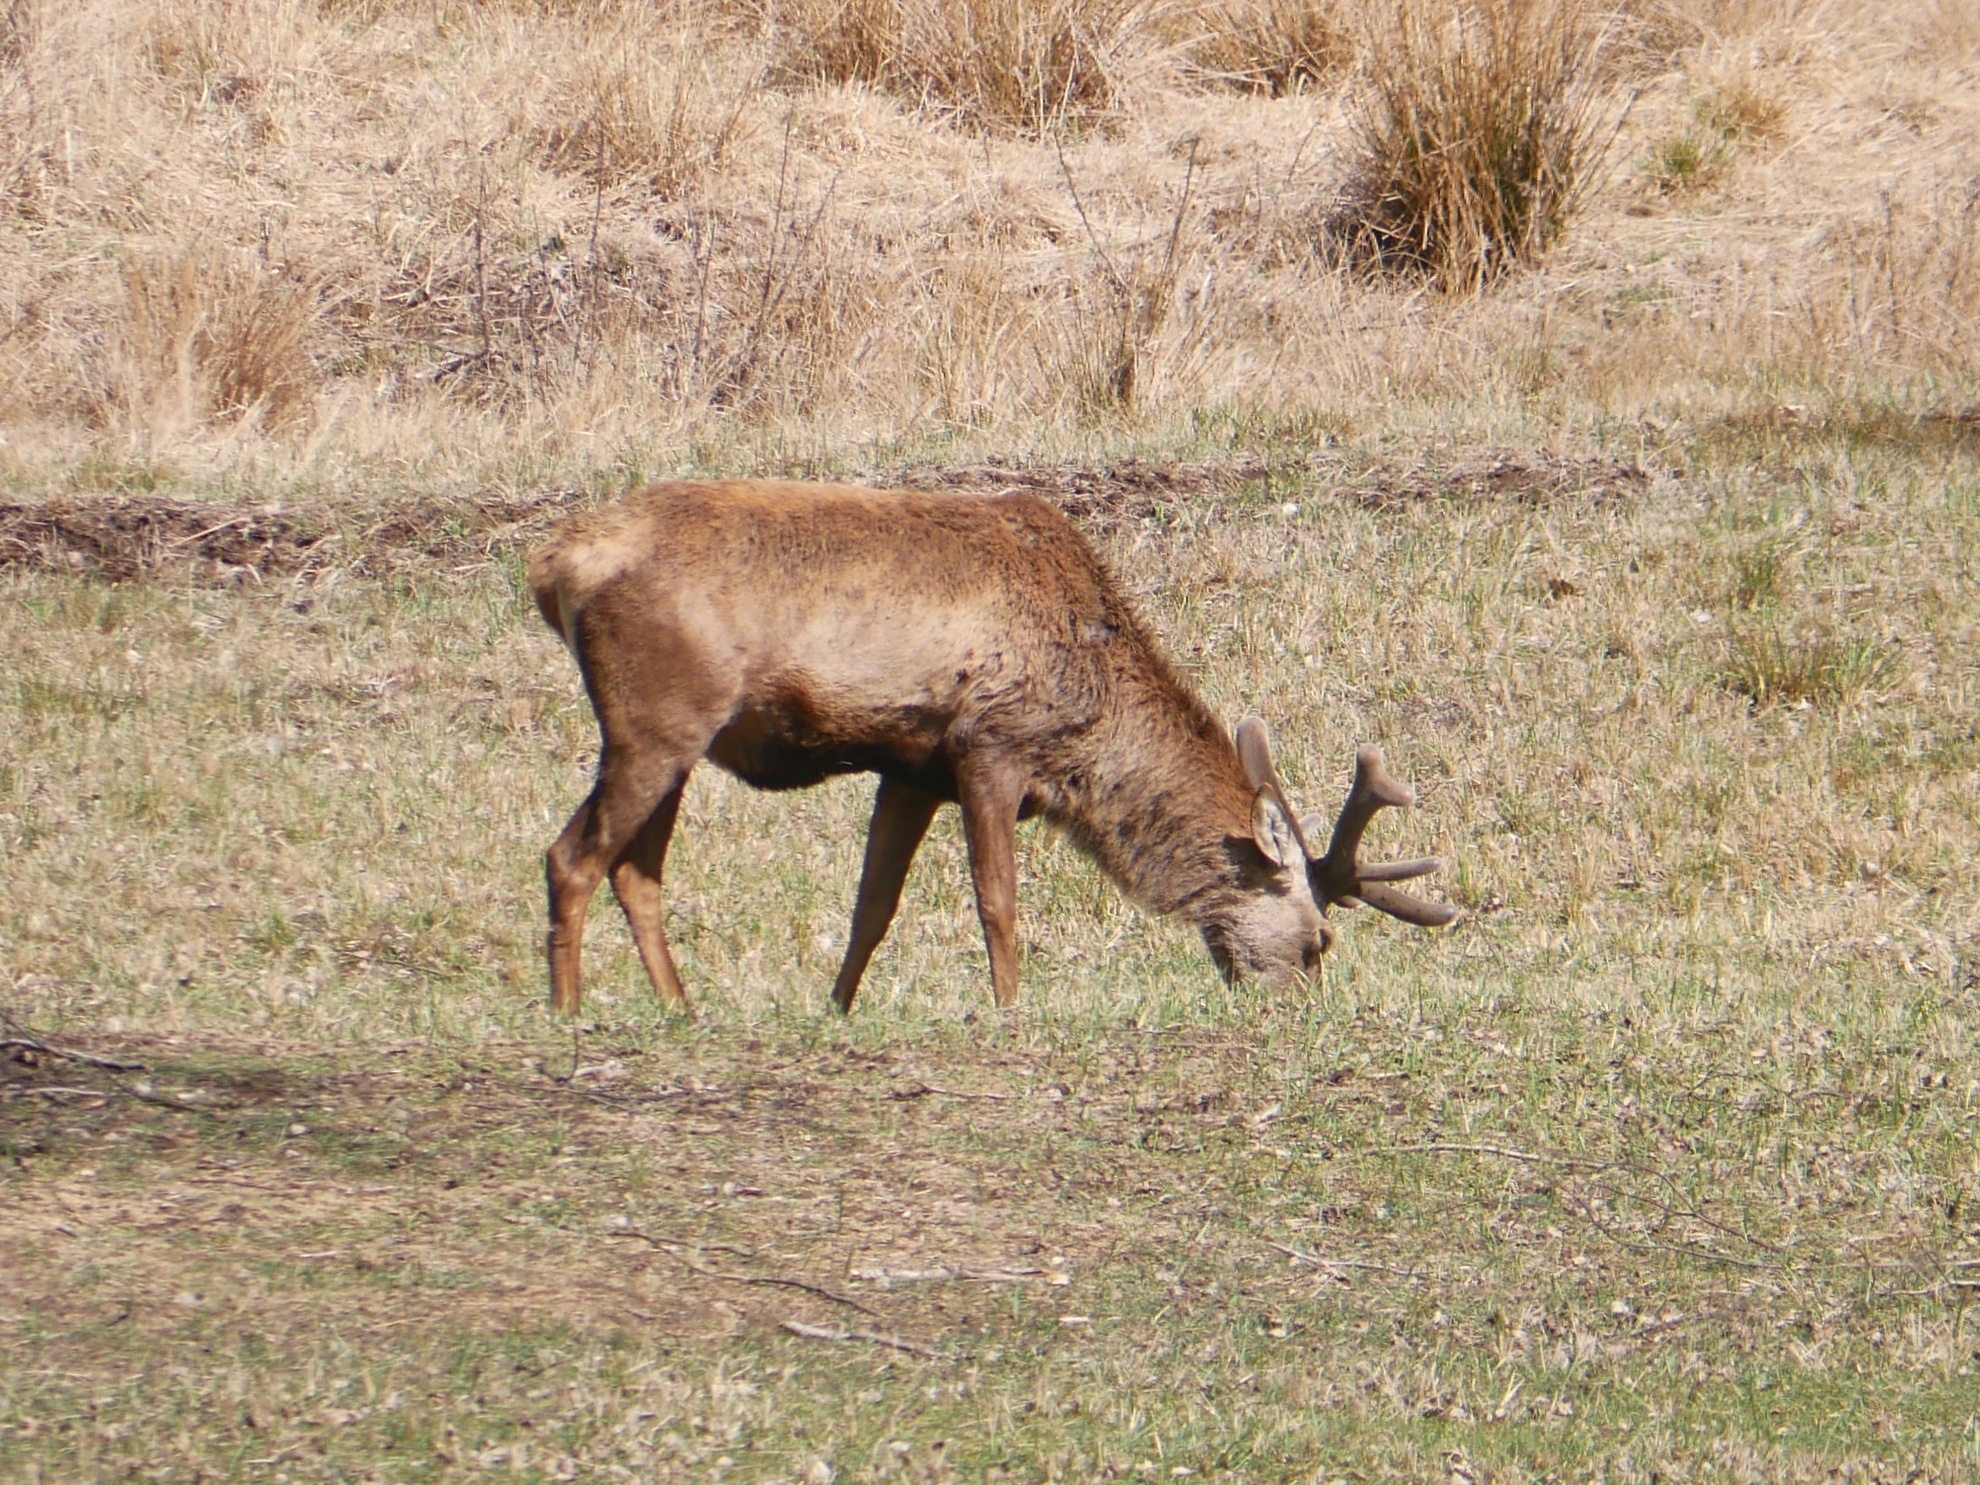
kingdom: Animalia
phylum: Chordata
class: Mammalia
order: Artiodactyla
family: Cervidae
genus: Cervus
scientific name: Cervus elaphus
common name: Red deer
